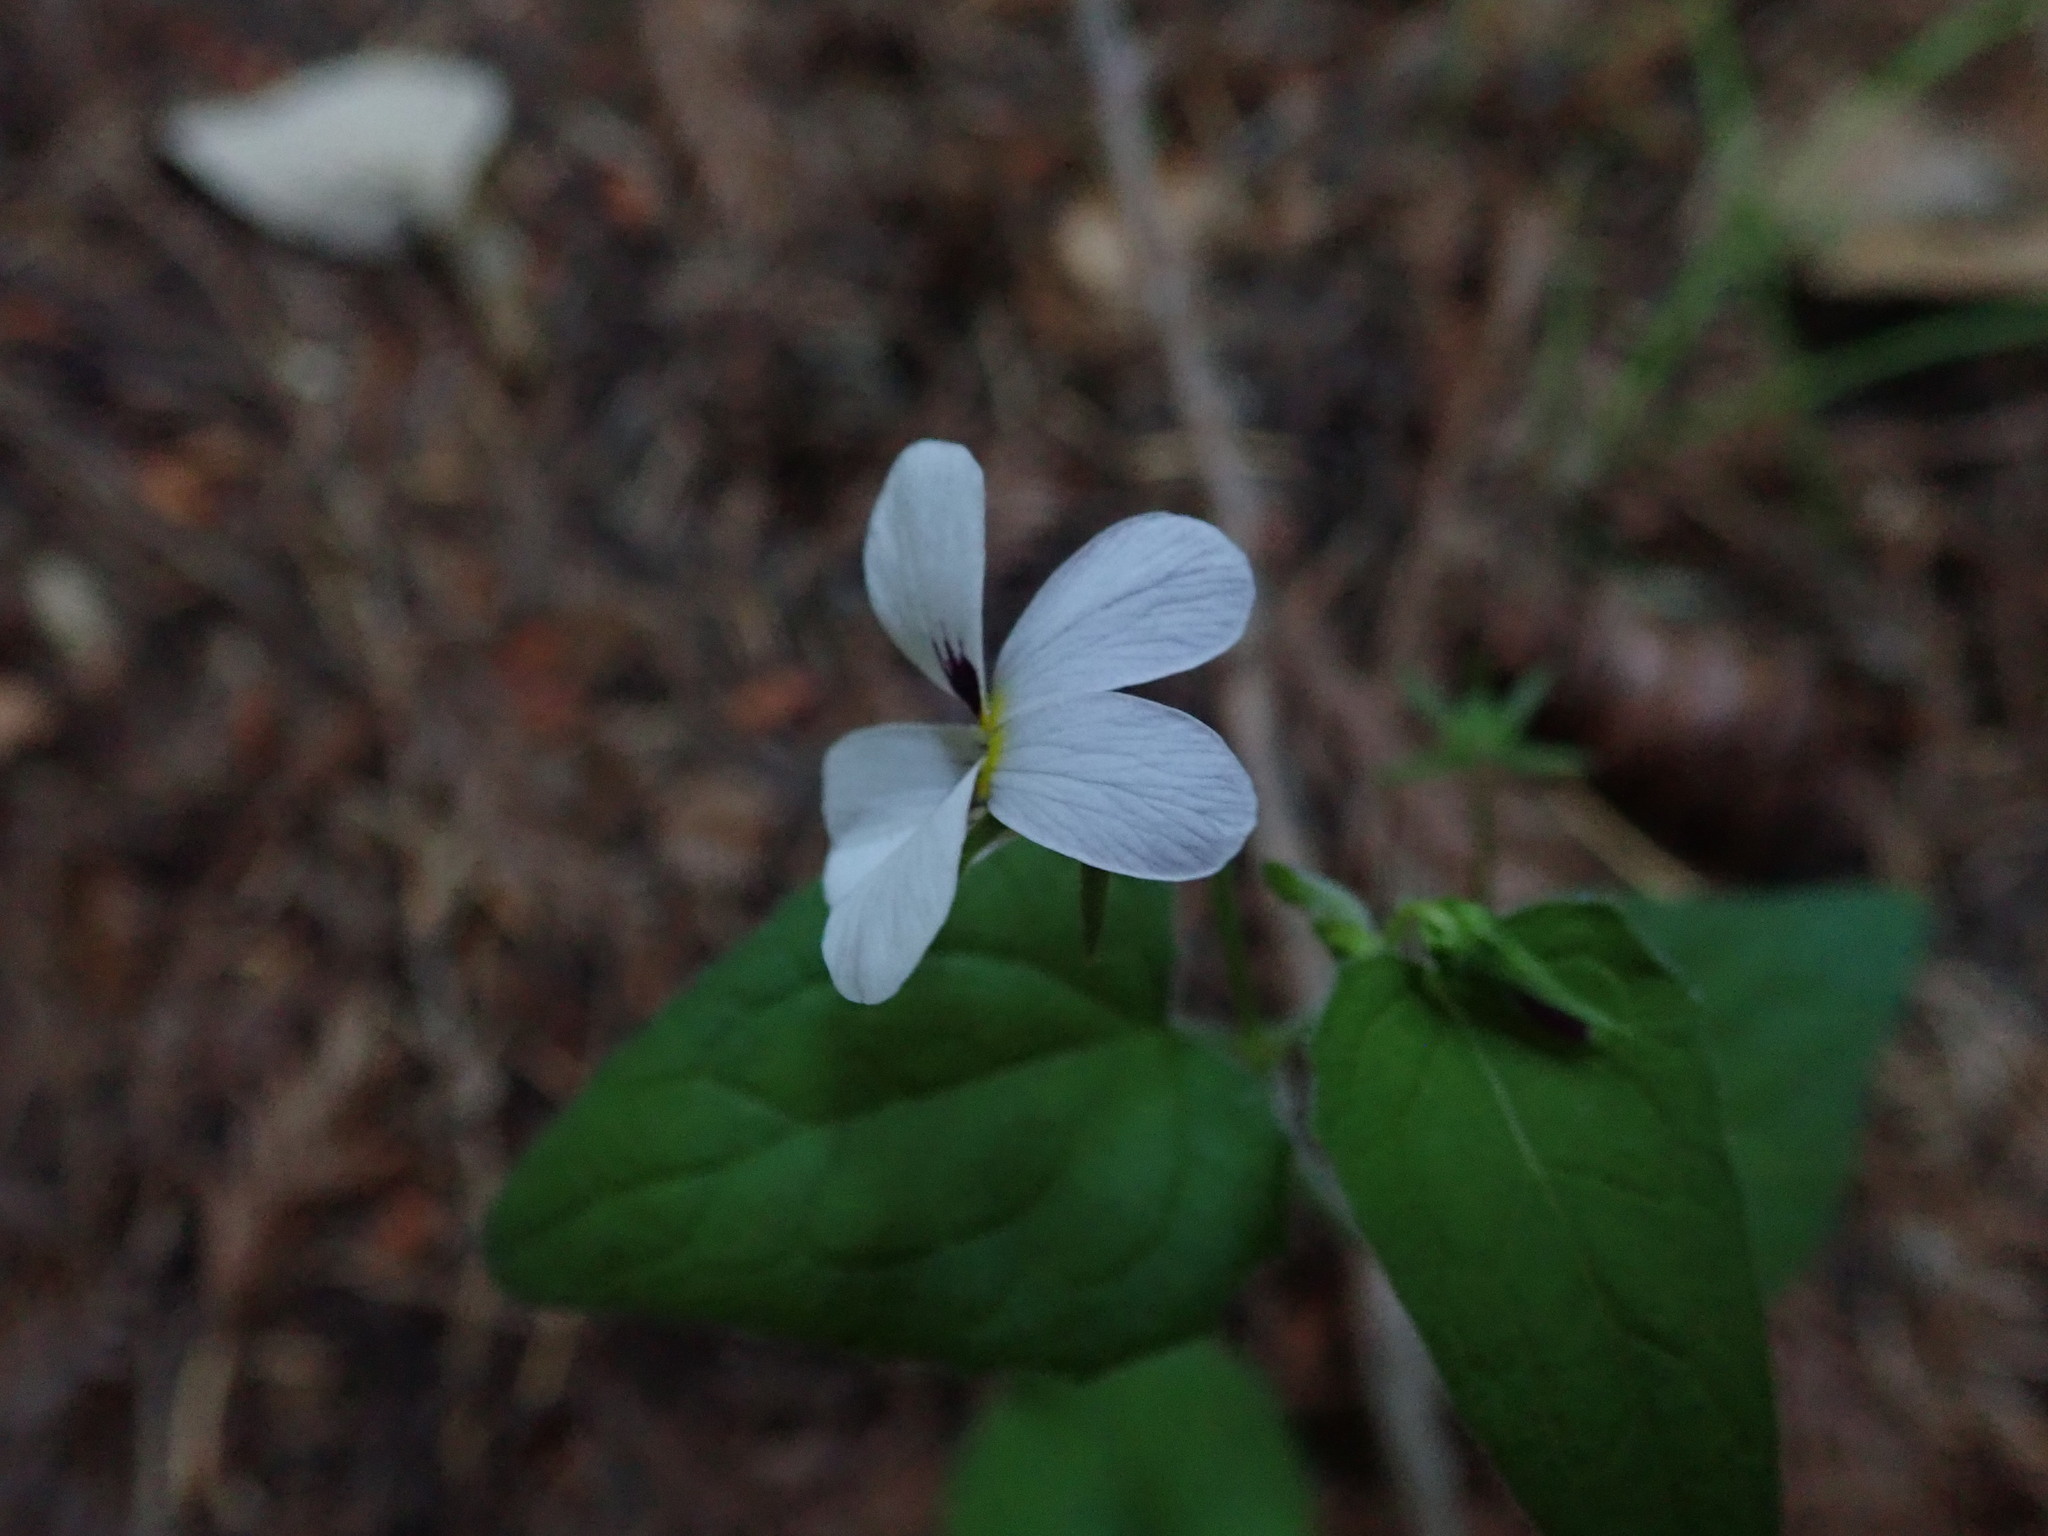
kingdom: Plantae
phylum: Tracheophyta
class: Magnoliopsida
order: Malpighiales
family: Violaceae
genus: Viola
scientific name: Viola ocellata
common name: Western heart's ease
